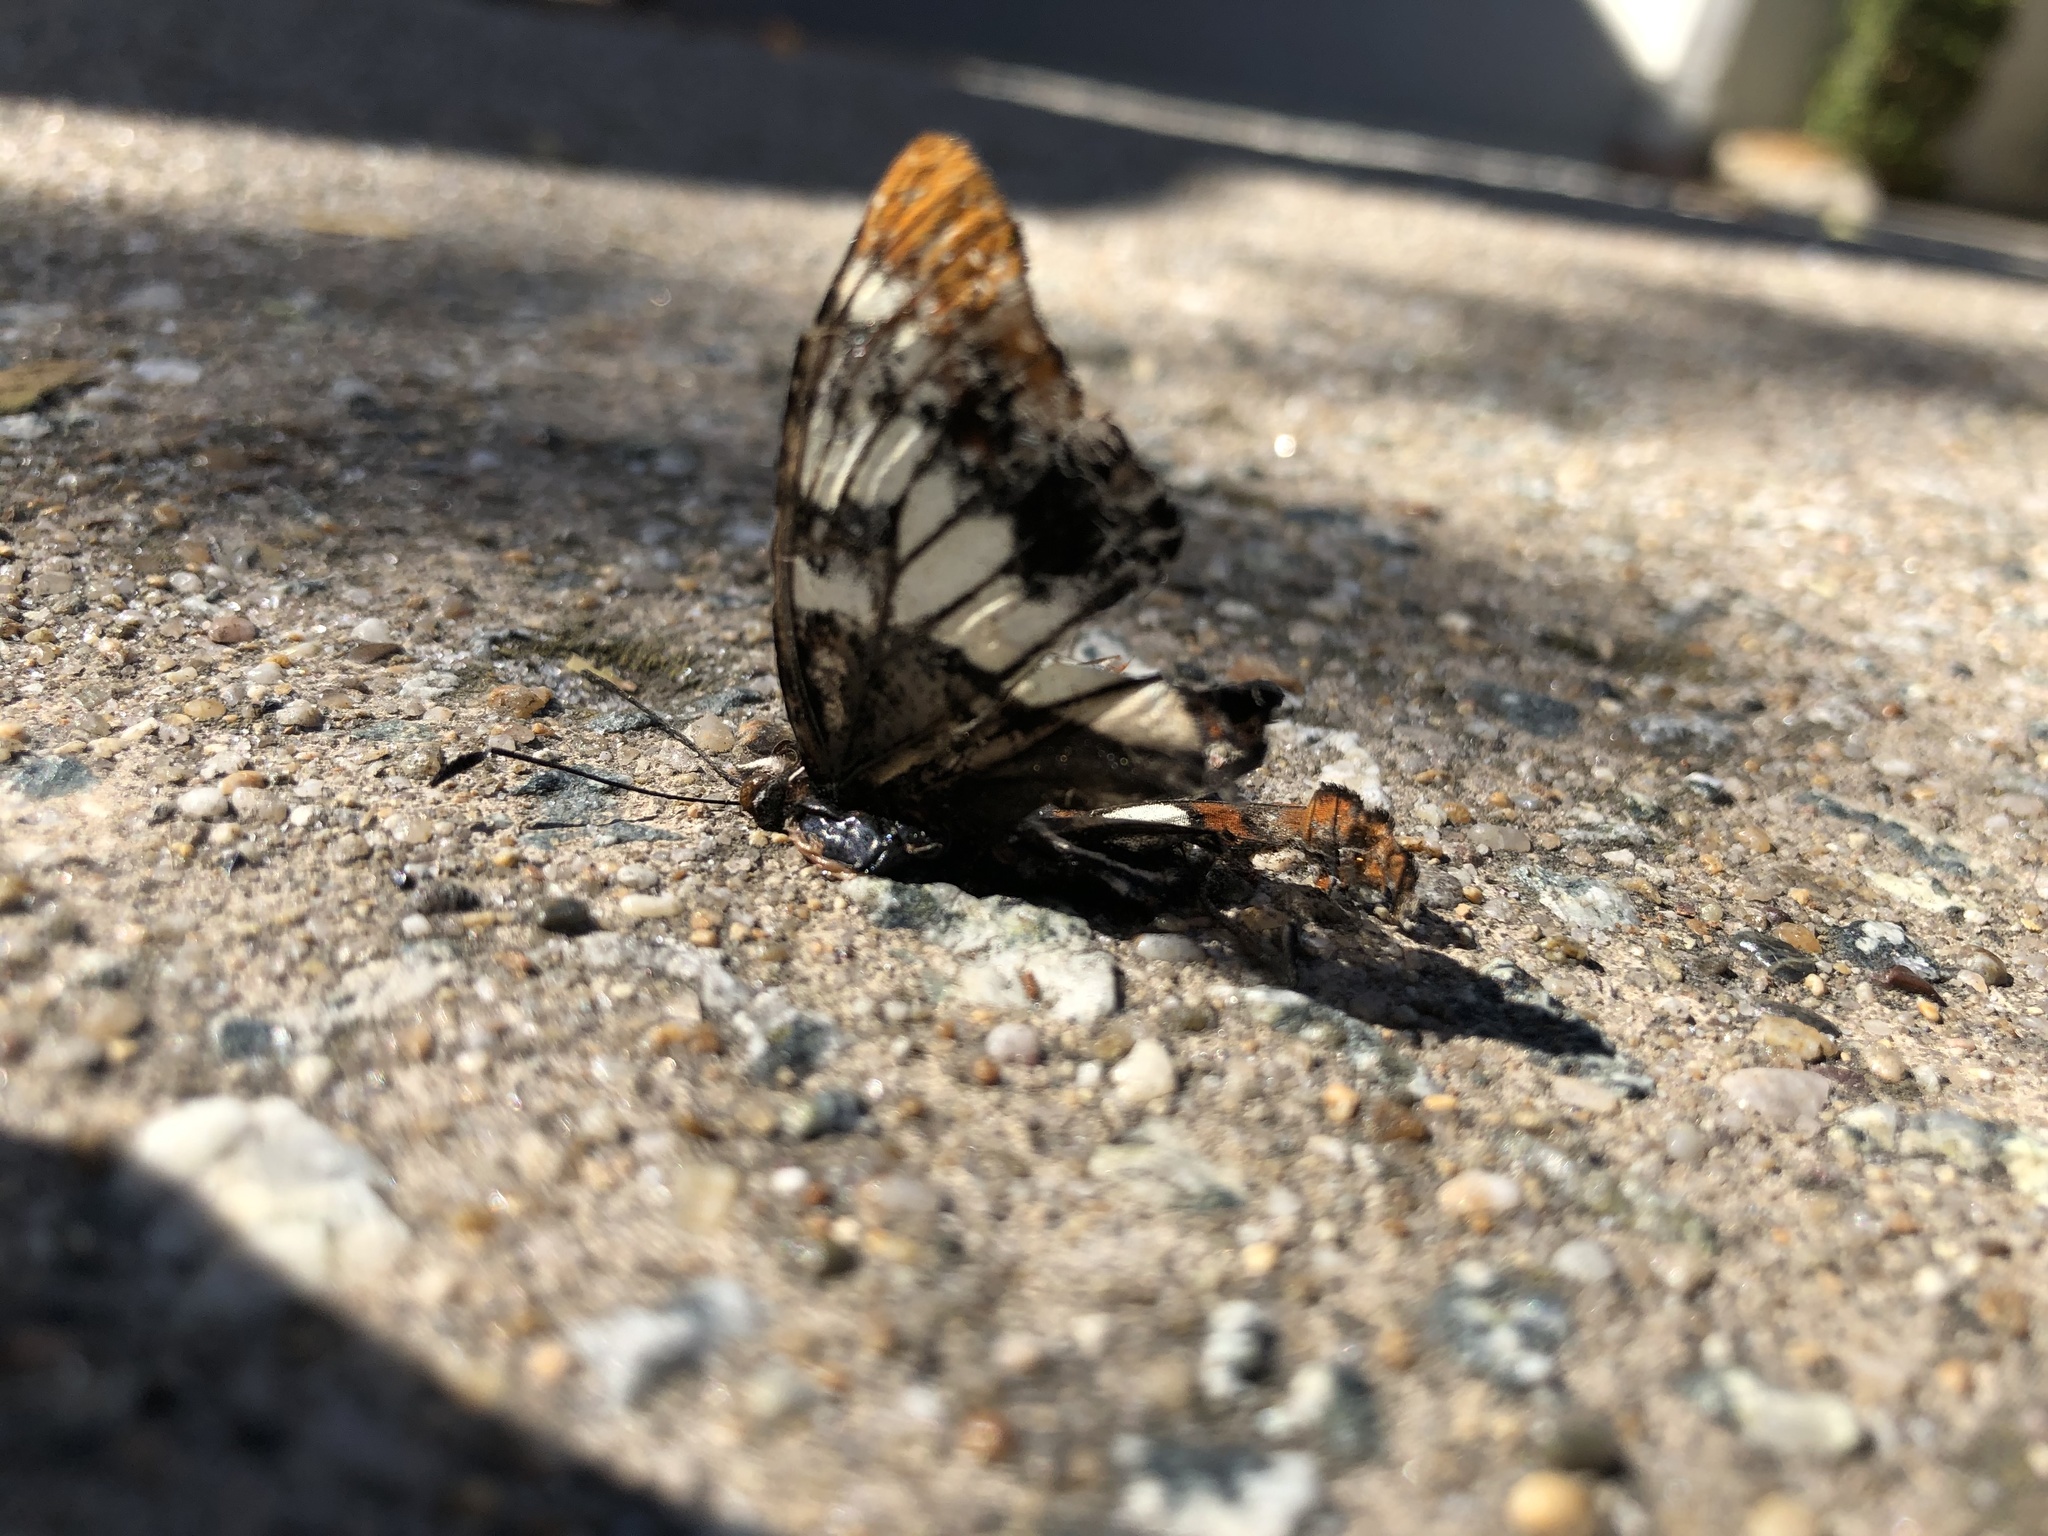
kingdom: Animalia
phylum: Arthropoda
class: Insecta
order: Lepidoptera
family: Nymphalidae
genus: Limenitis
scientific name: Limenitis lorquini
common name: Lorquin's admiral
